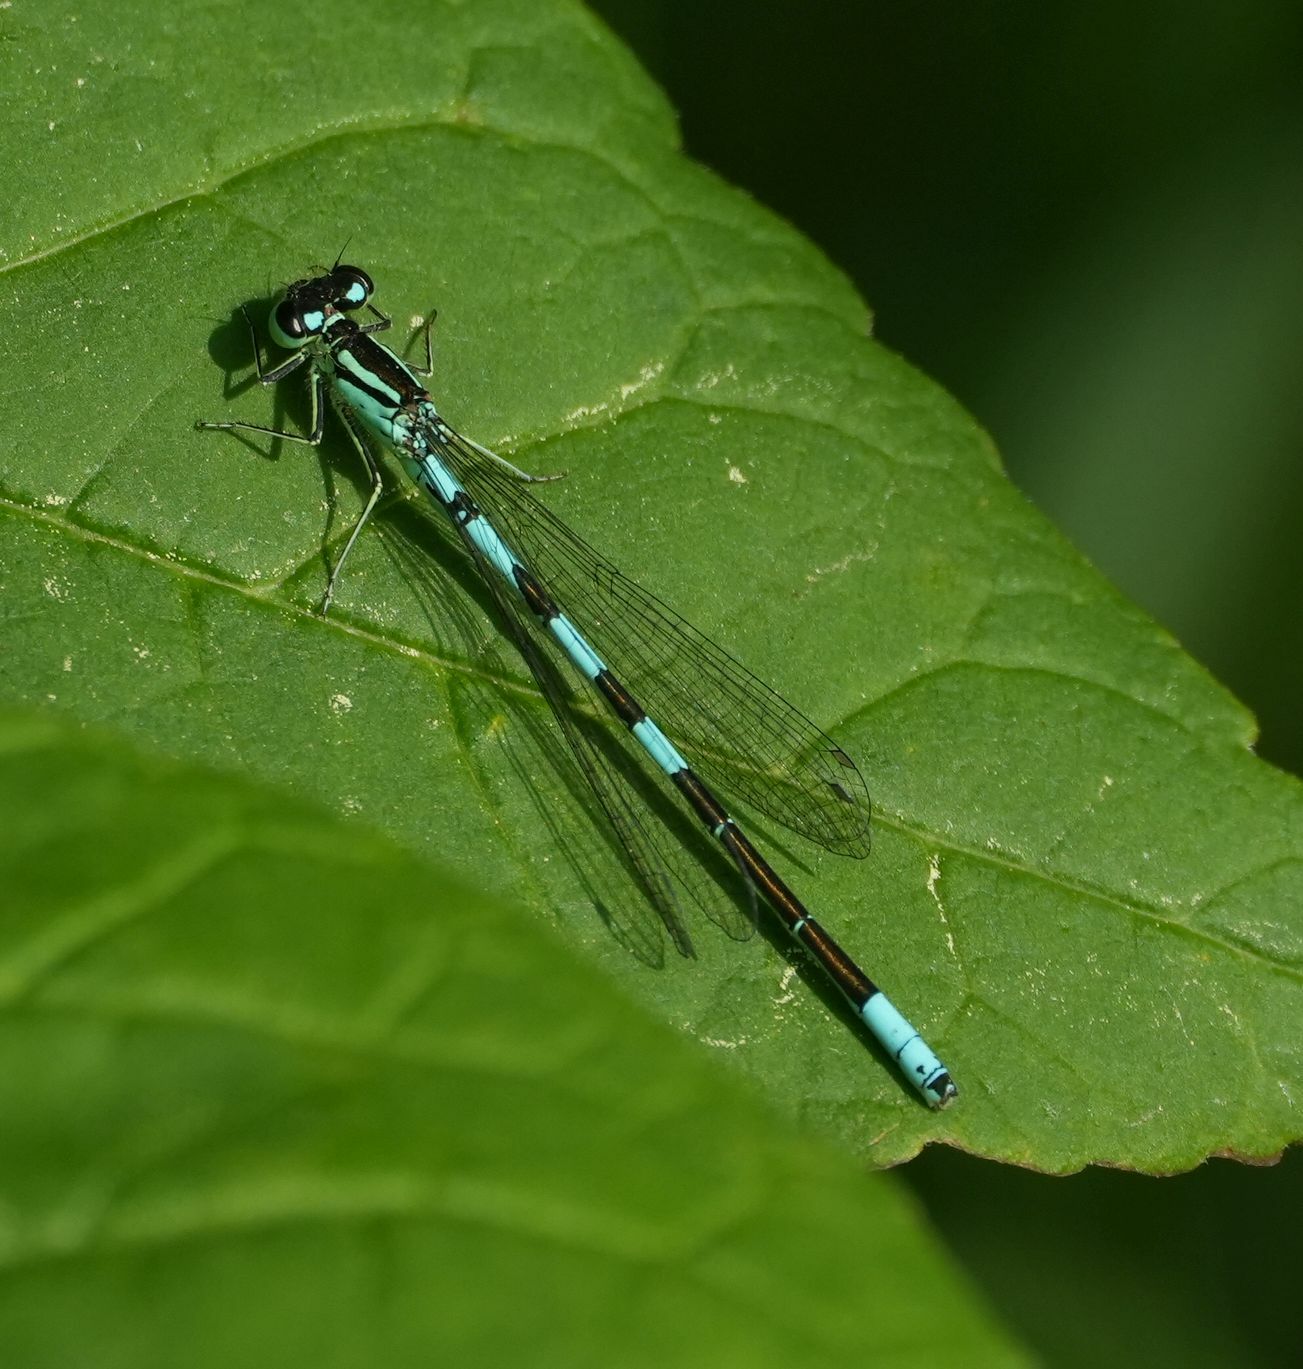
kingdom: Animalia
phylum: Arthropoda
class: Insecta
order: Odonata
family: Coenagrionidae
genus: Coenagrion
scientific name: Coenagrion resolutum
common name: Taiga bluet
